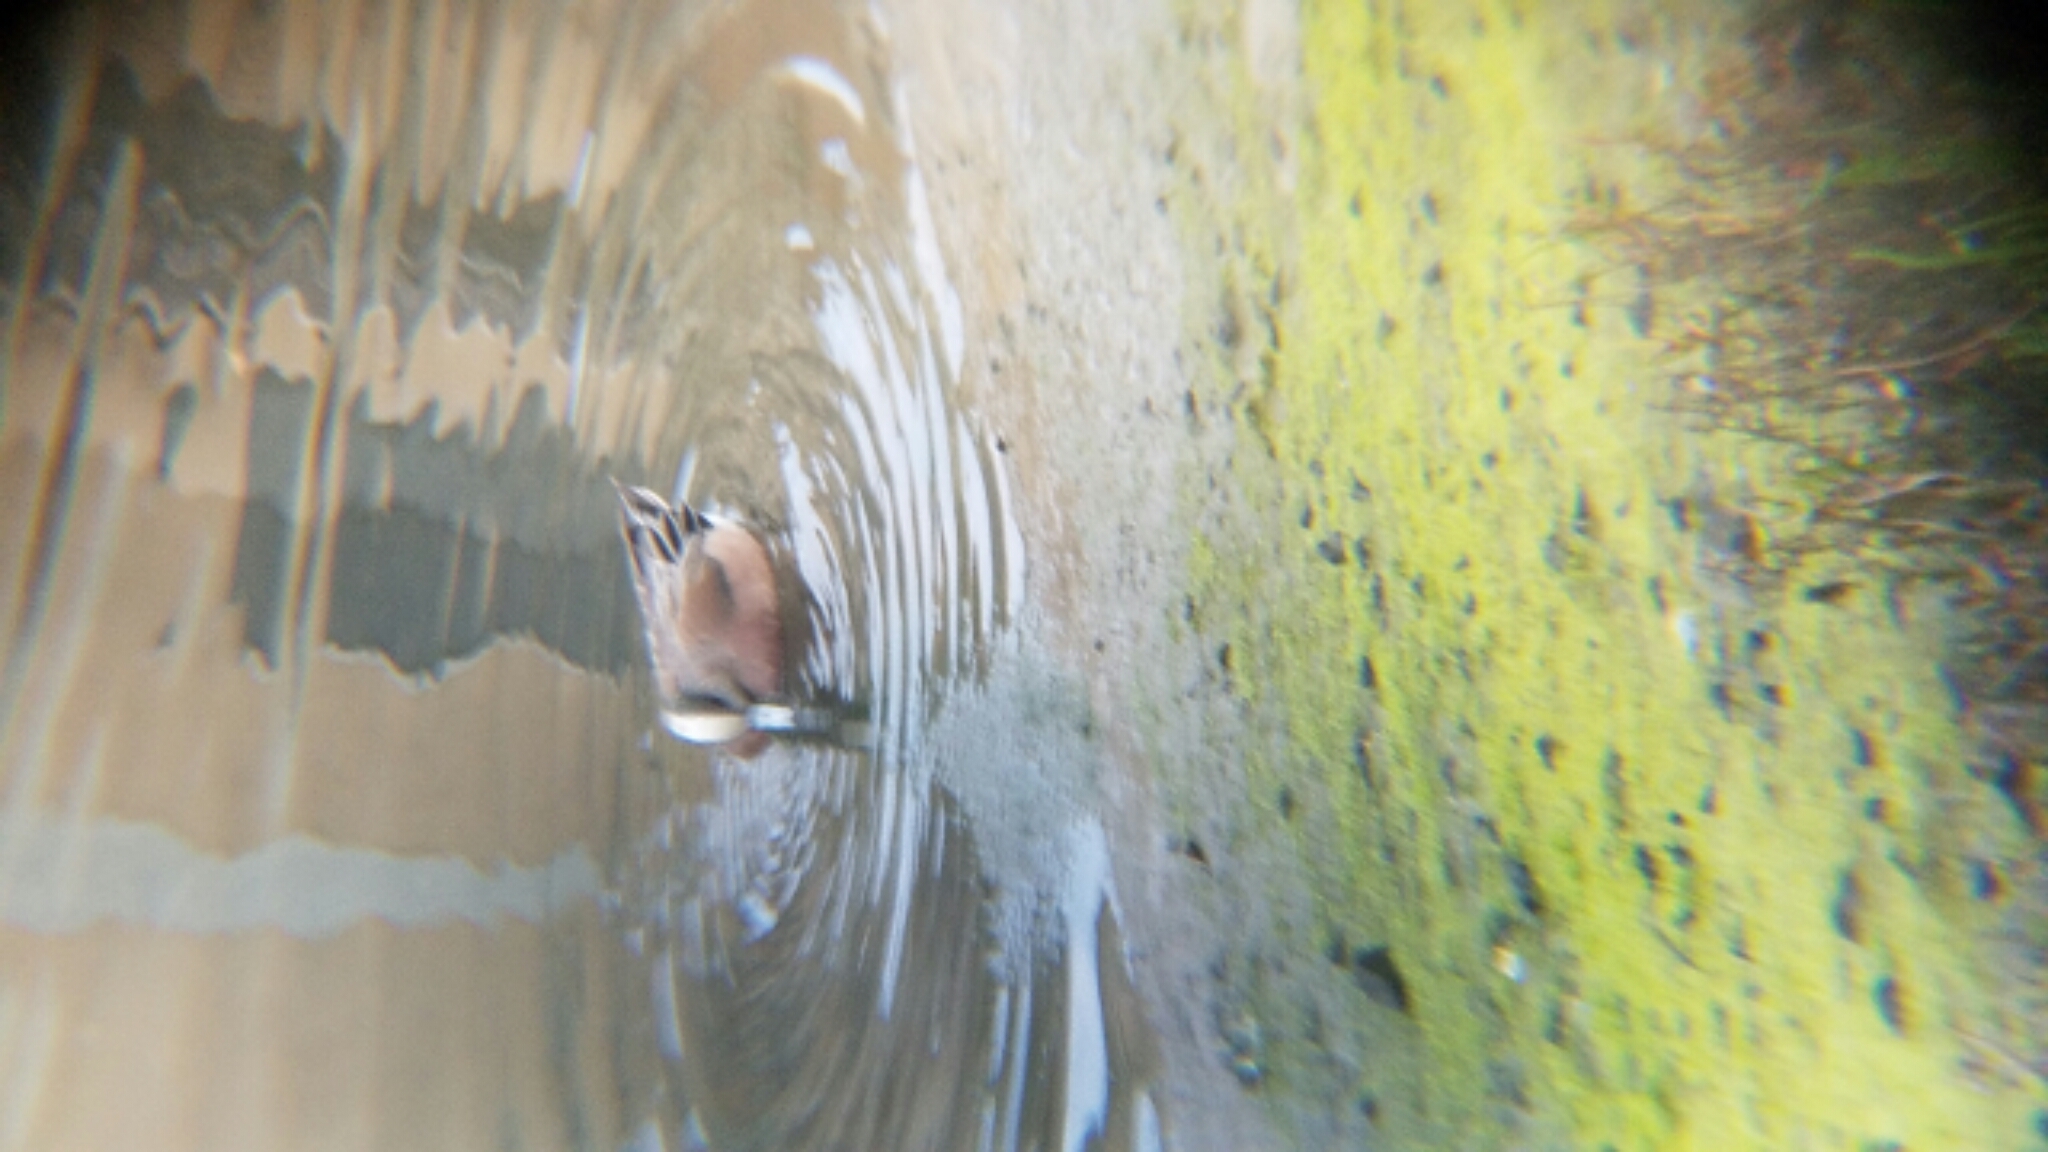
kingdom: Animalia
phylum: Chordata
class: Aves
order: Anseriformes
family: Anatidae
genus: Mareca
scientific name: Mareca americana
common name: American wigeon
